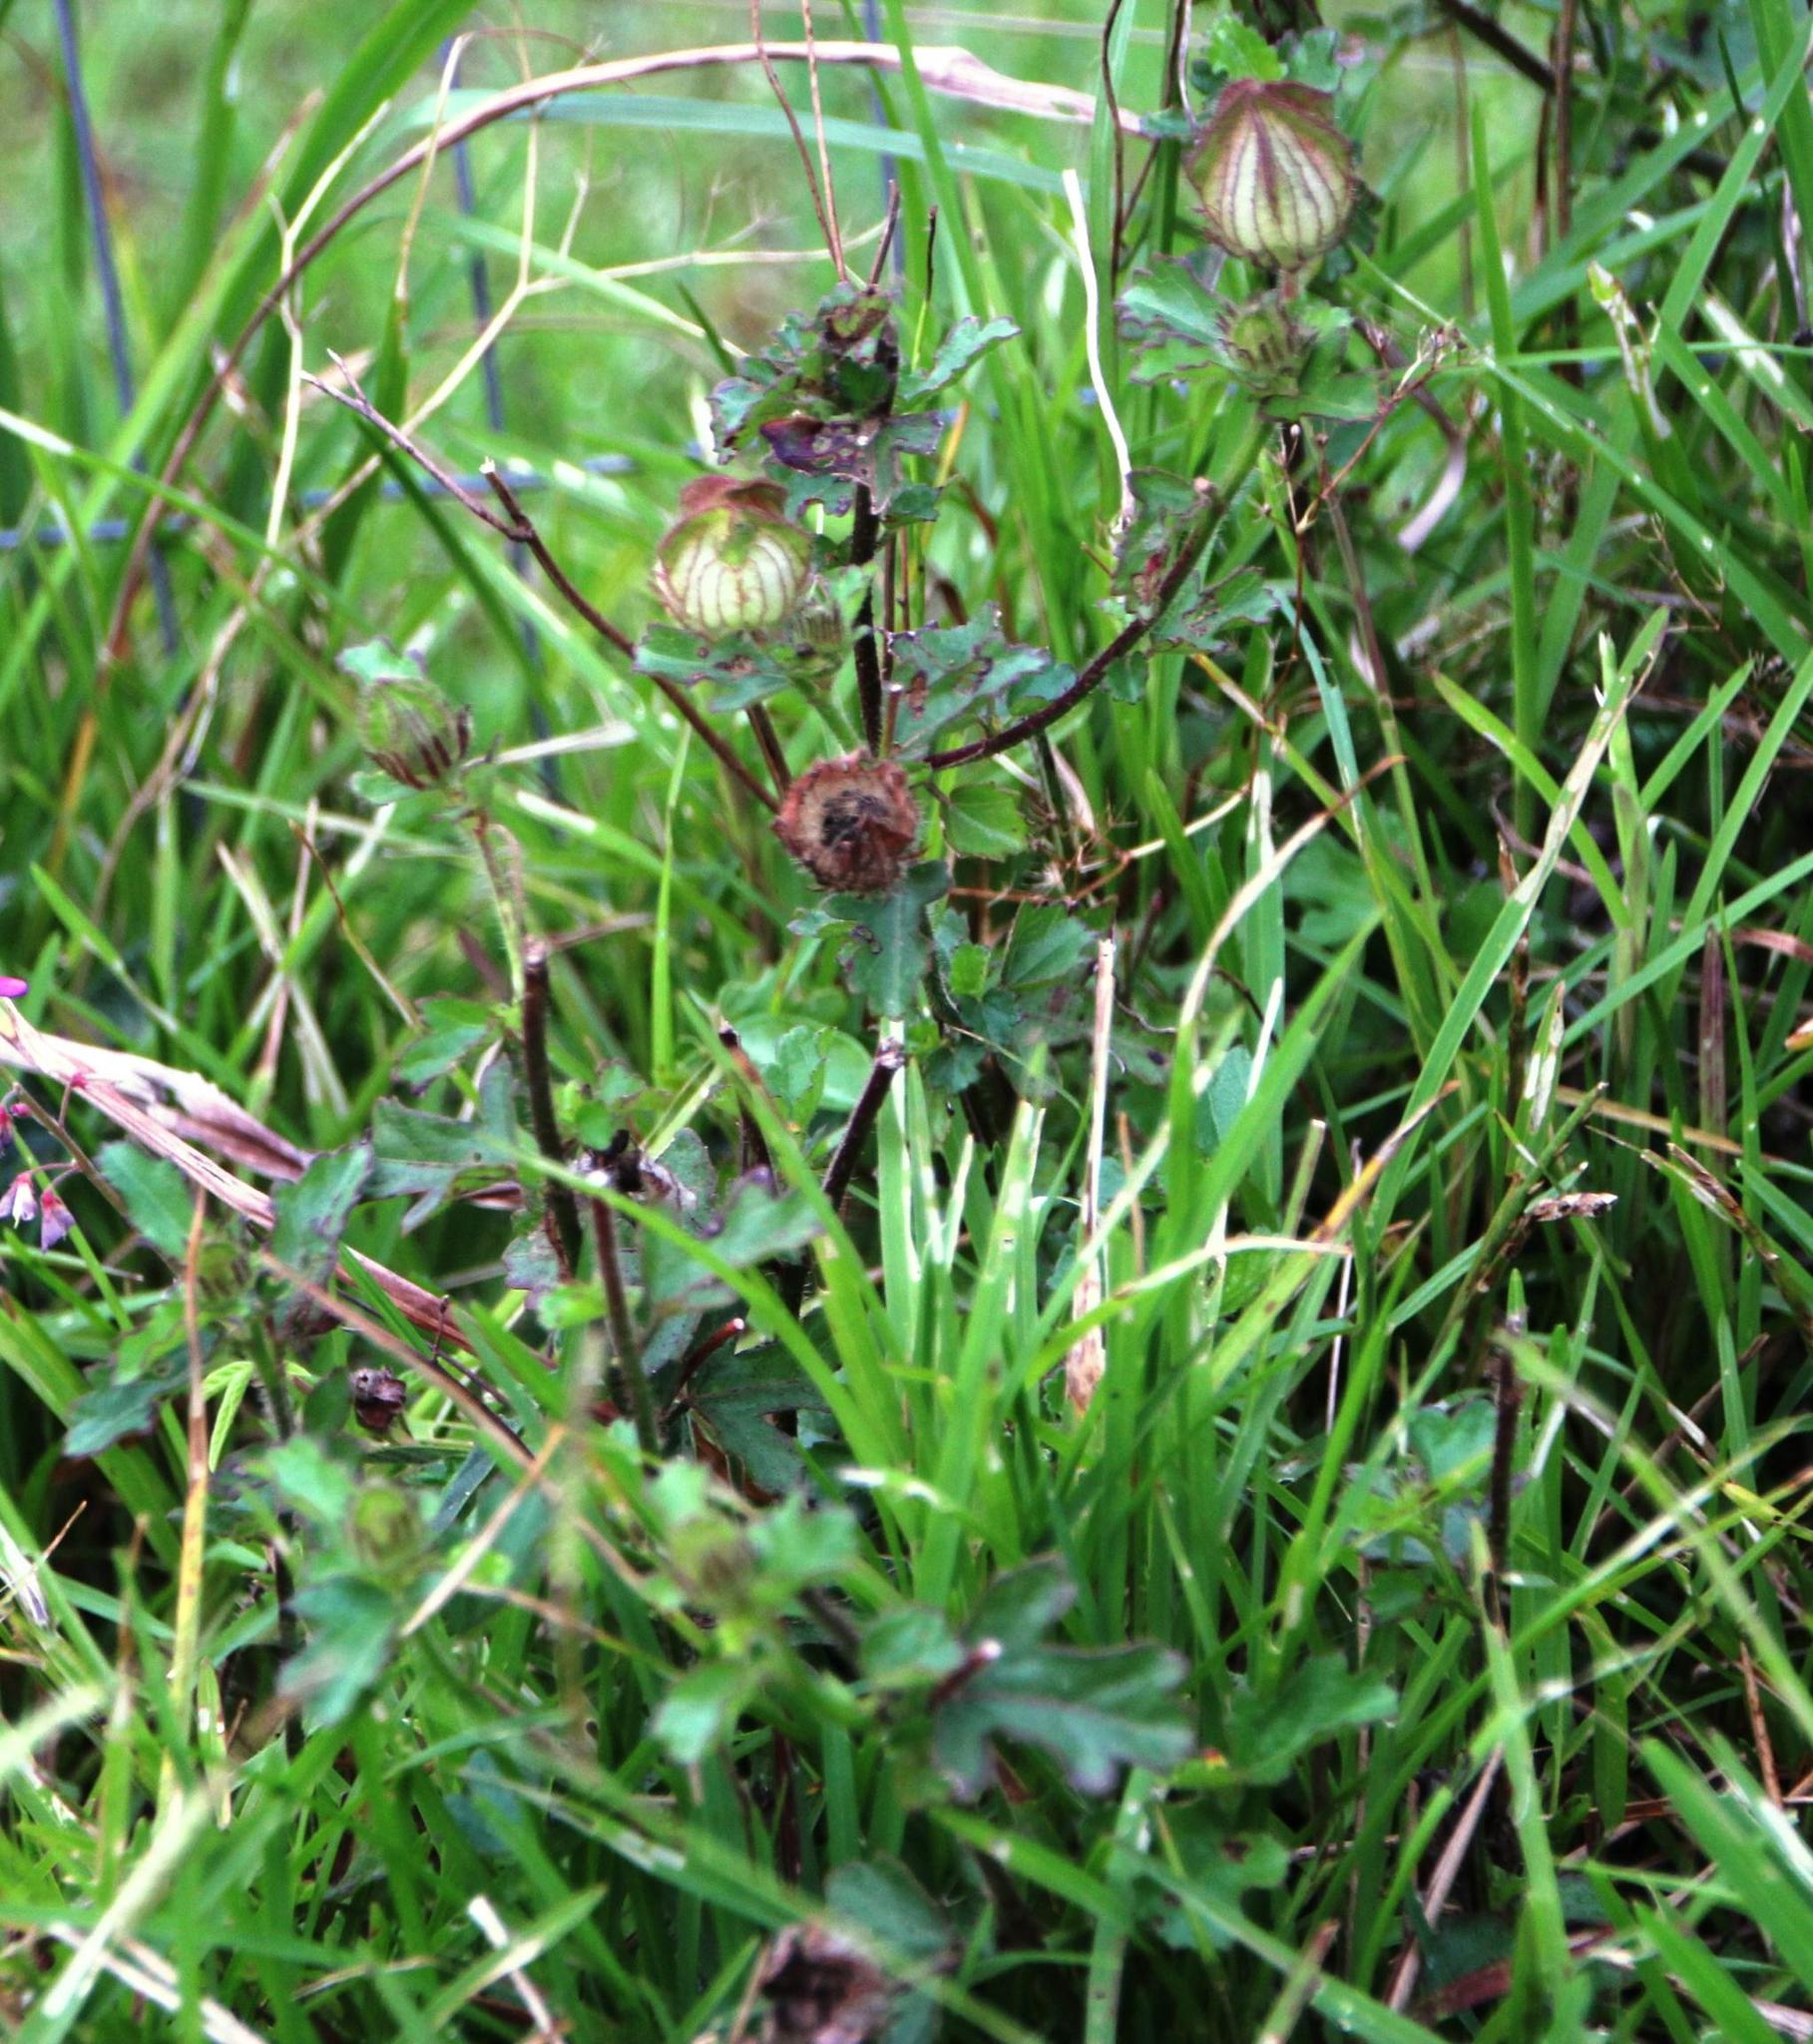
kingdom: Plantae
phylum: Tracheophyta
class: Magnoliopsida
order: Malvales
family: Malvaceae
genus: Hibiscus
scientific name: Hibiscus trionum
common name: Bladder ketmia
